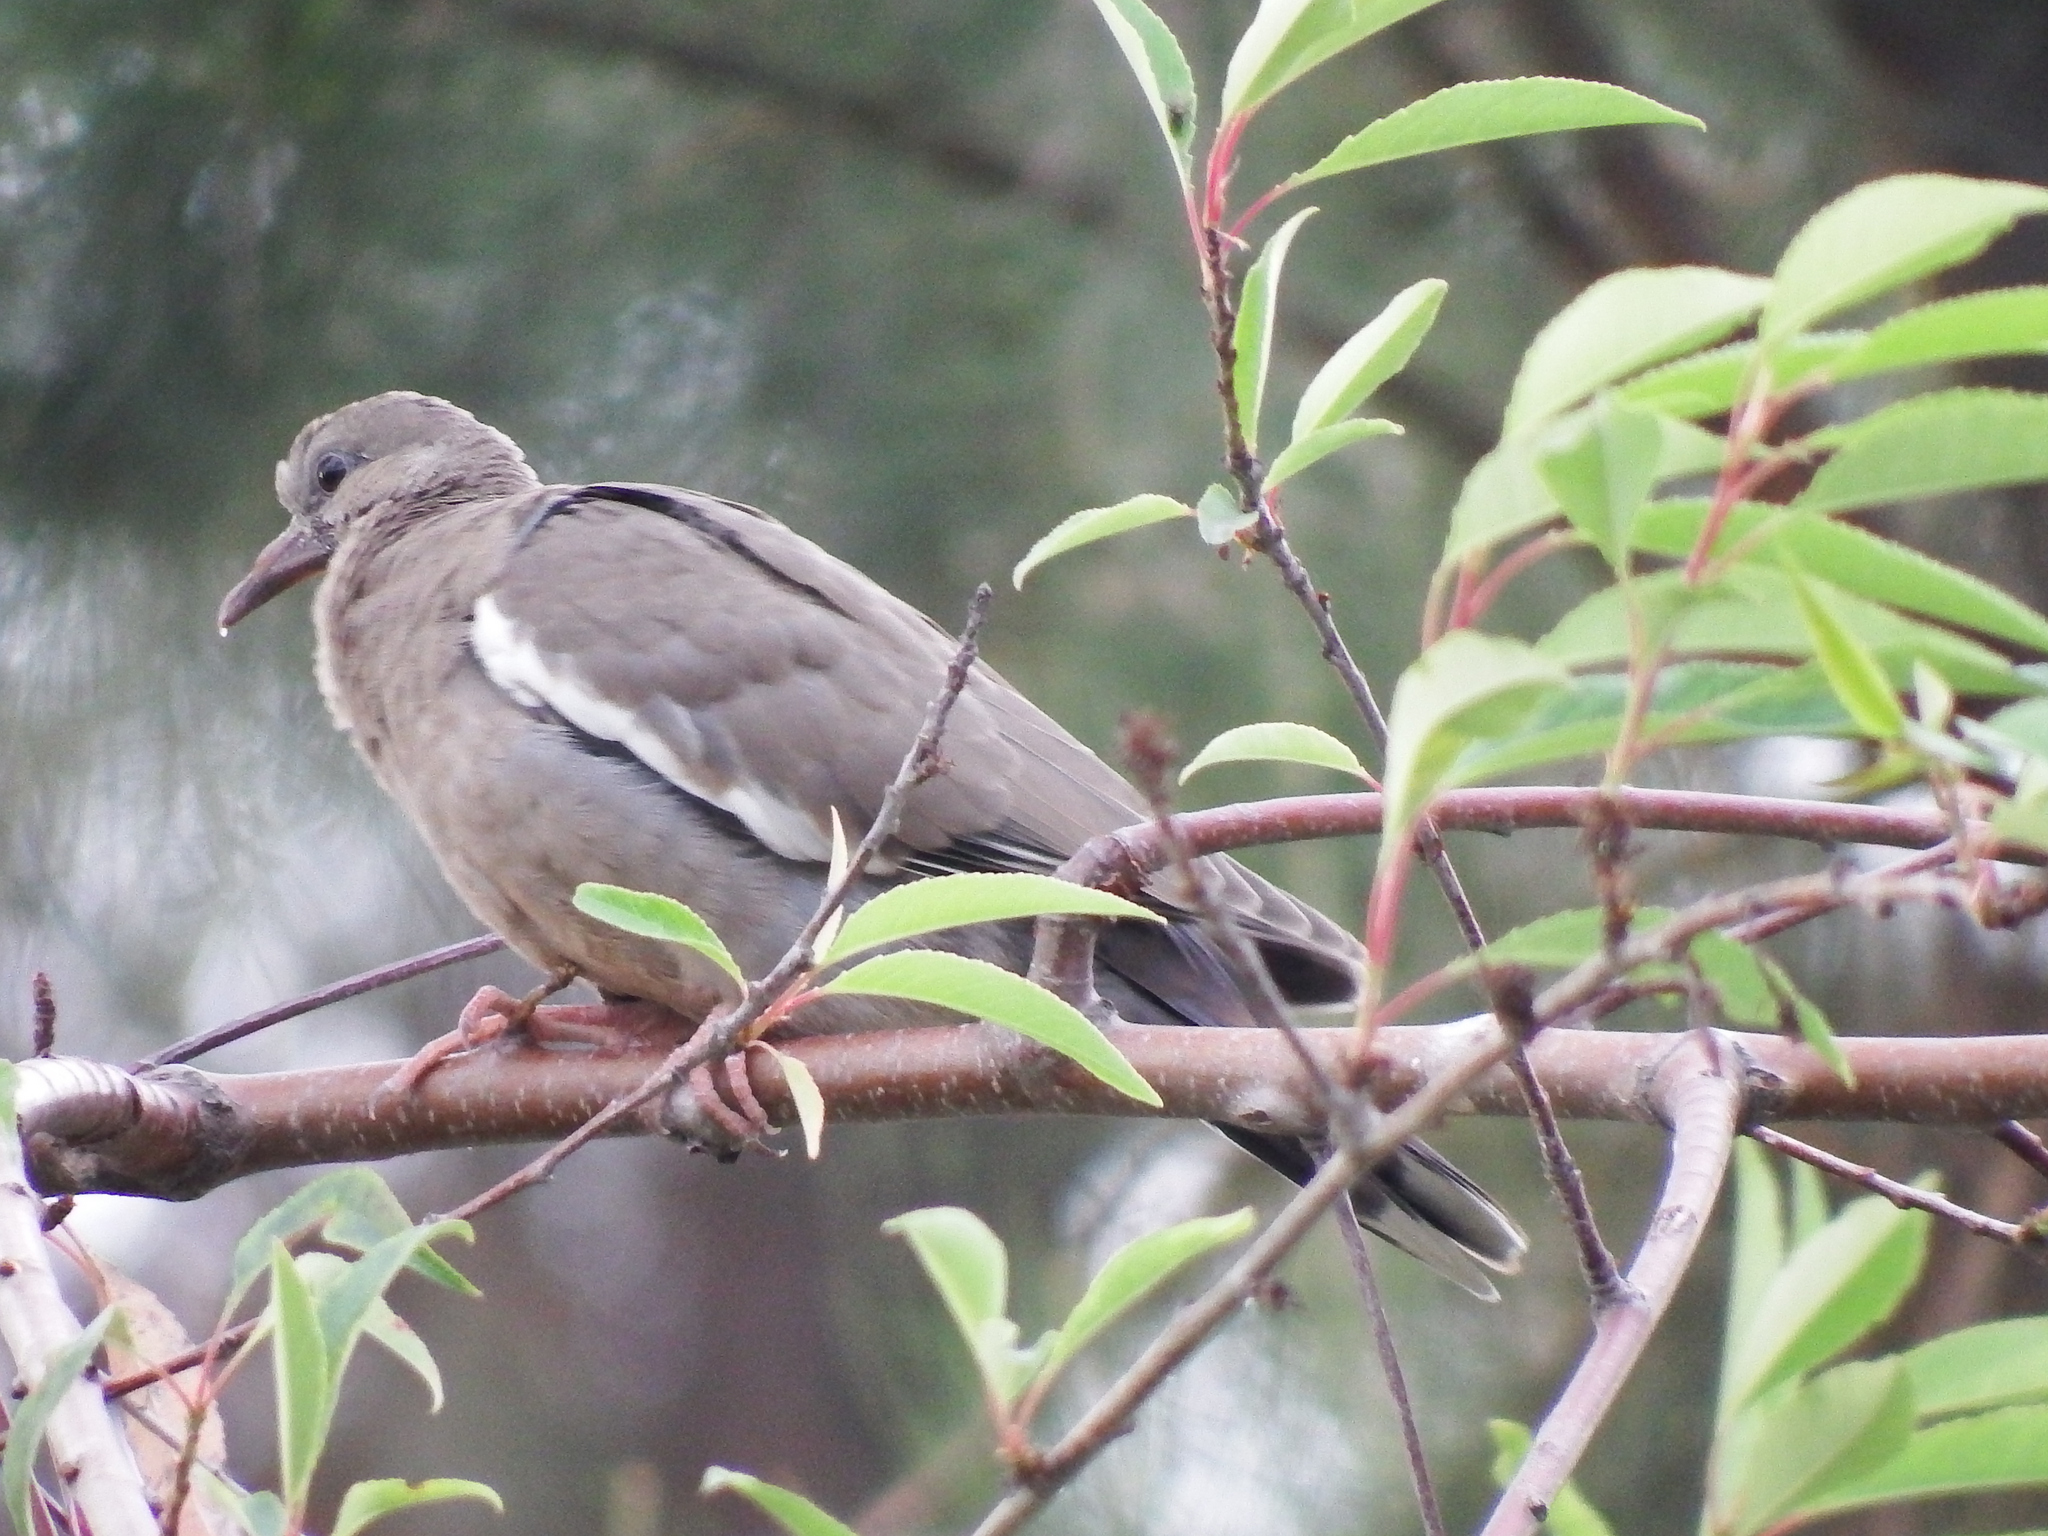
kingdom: Animalia
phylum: Chordata
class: Aves
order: Columbiformes
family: Columbidae
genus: Zenaida
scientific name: Zenaida meloda
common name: West peruvian dove
